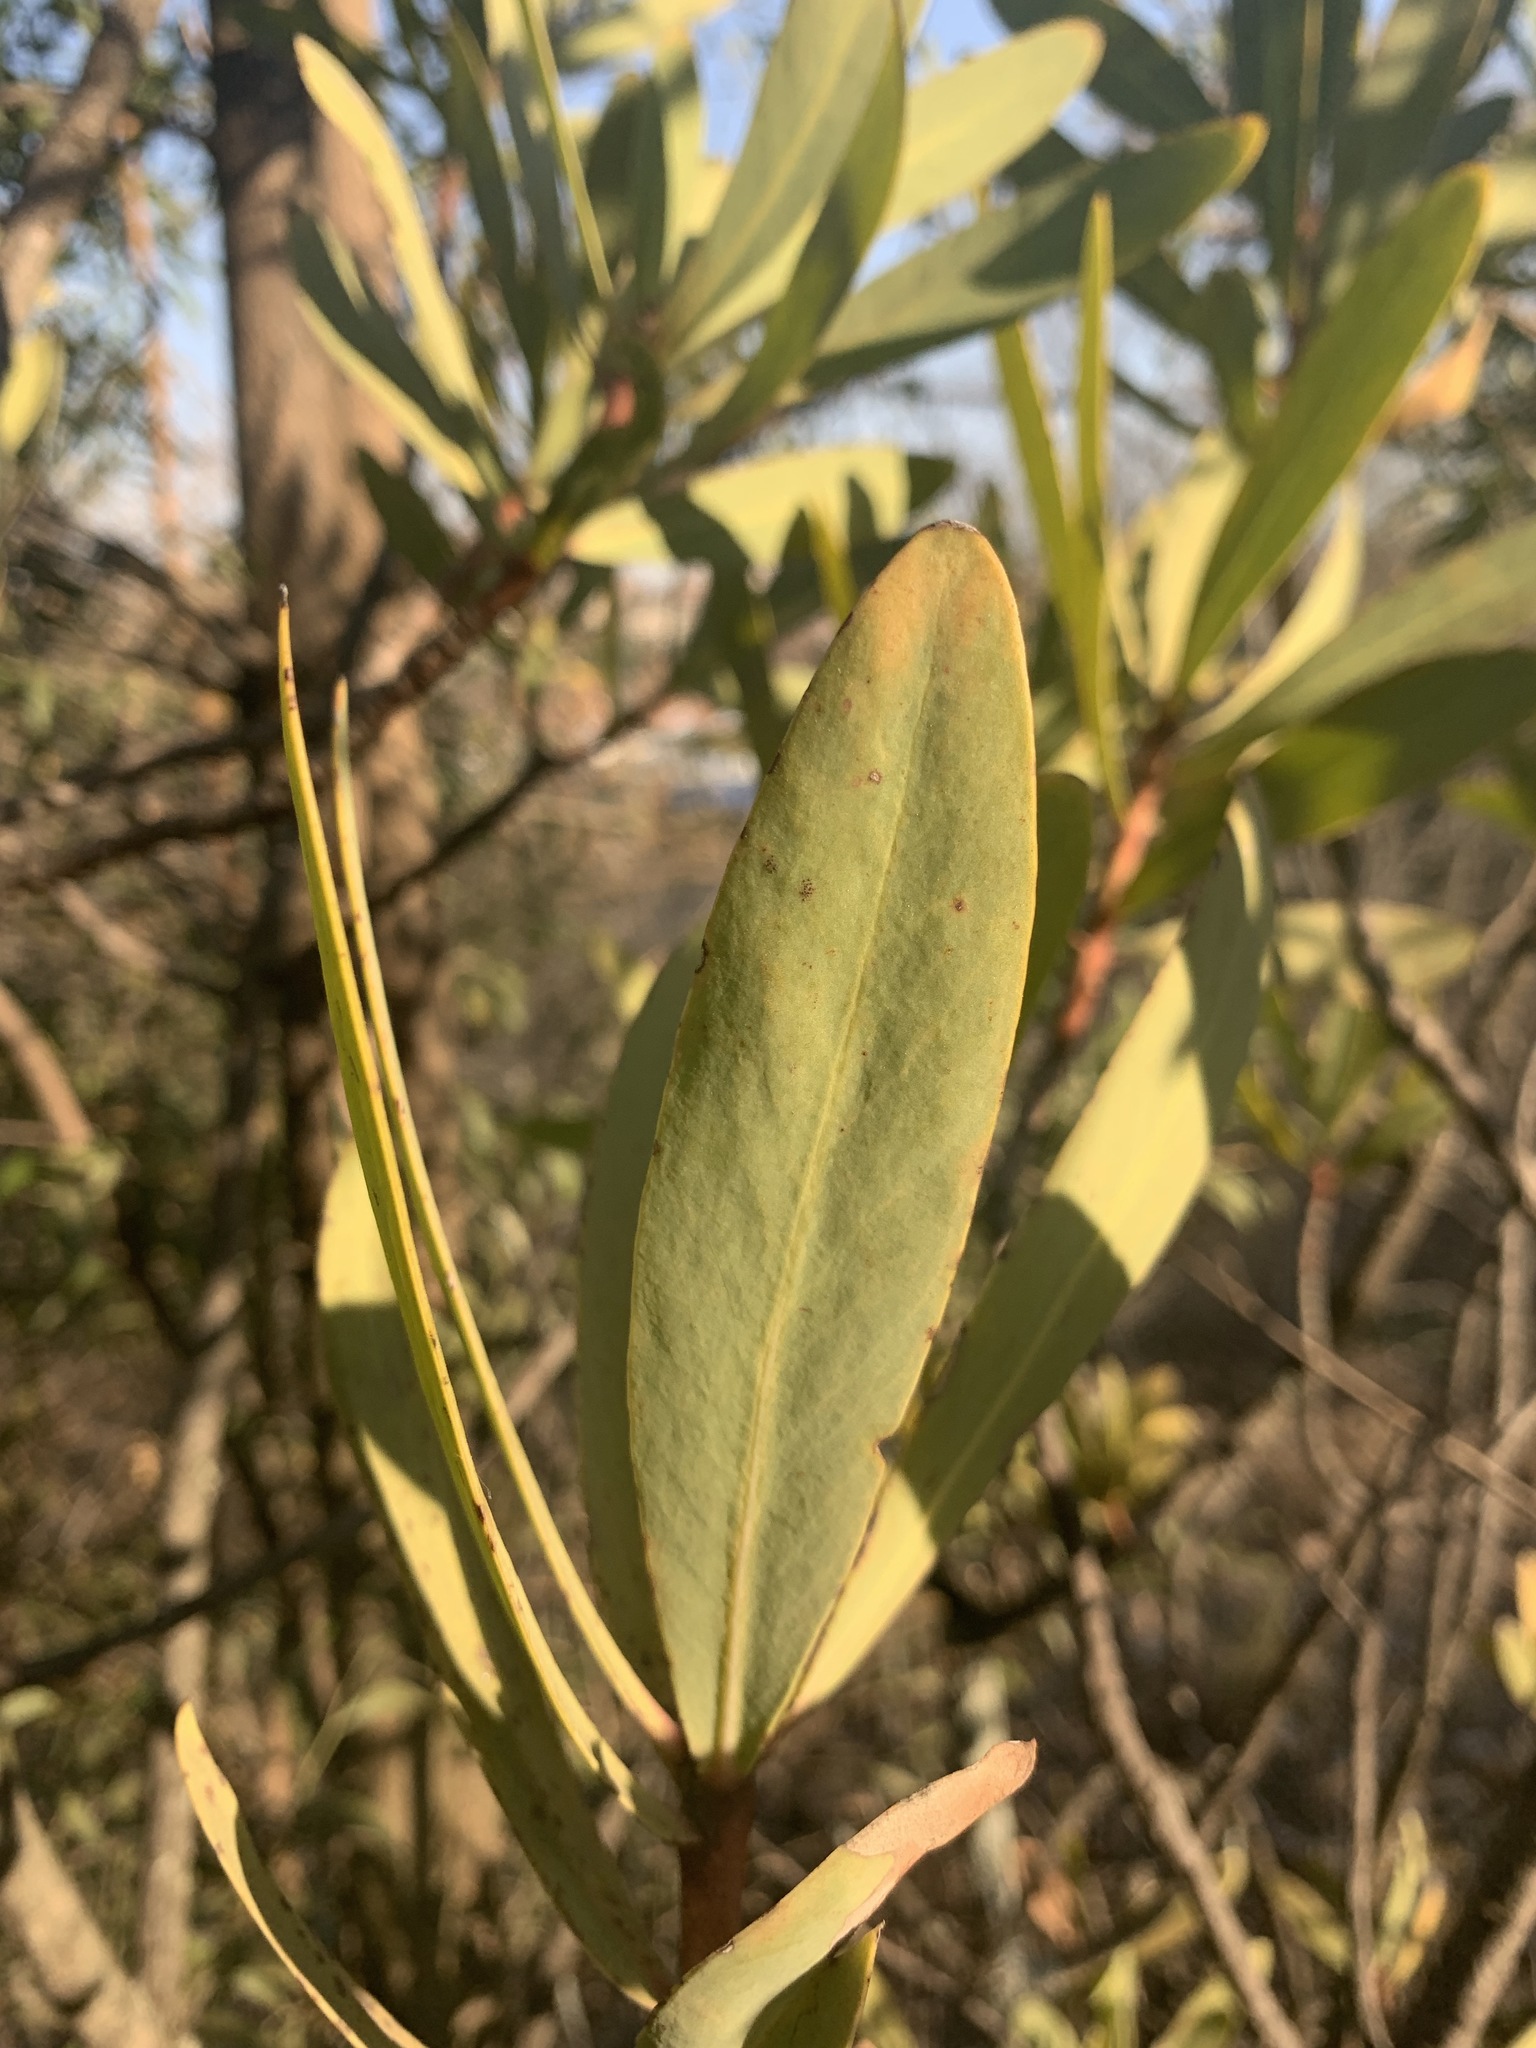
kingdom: Plantae
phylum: Tracheophyta
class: Magnoliopsida
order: Proteales
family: Proteaceae
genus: Protea
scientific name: Protea caffra
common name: Common sugarbush
